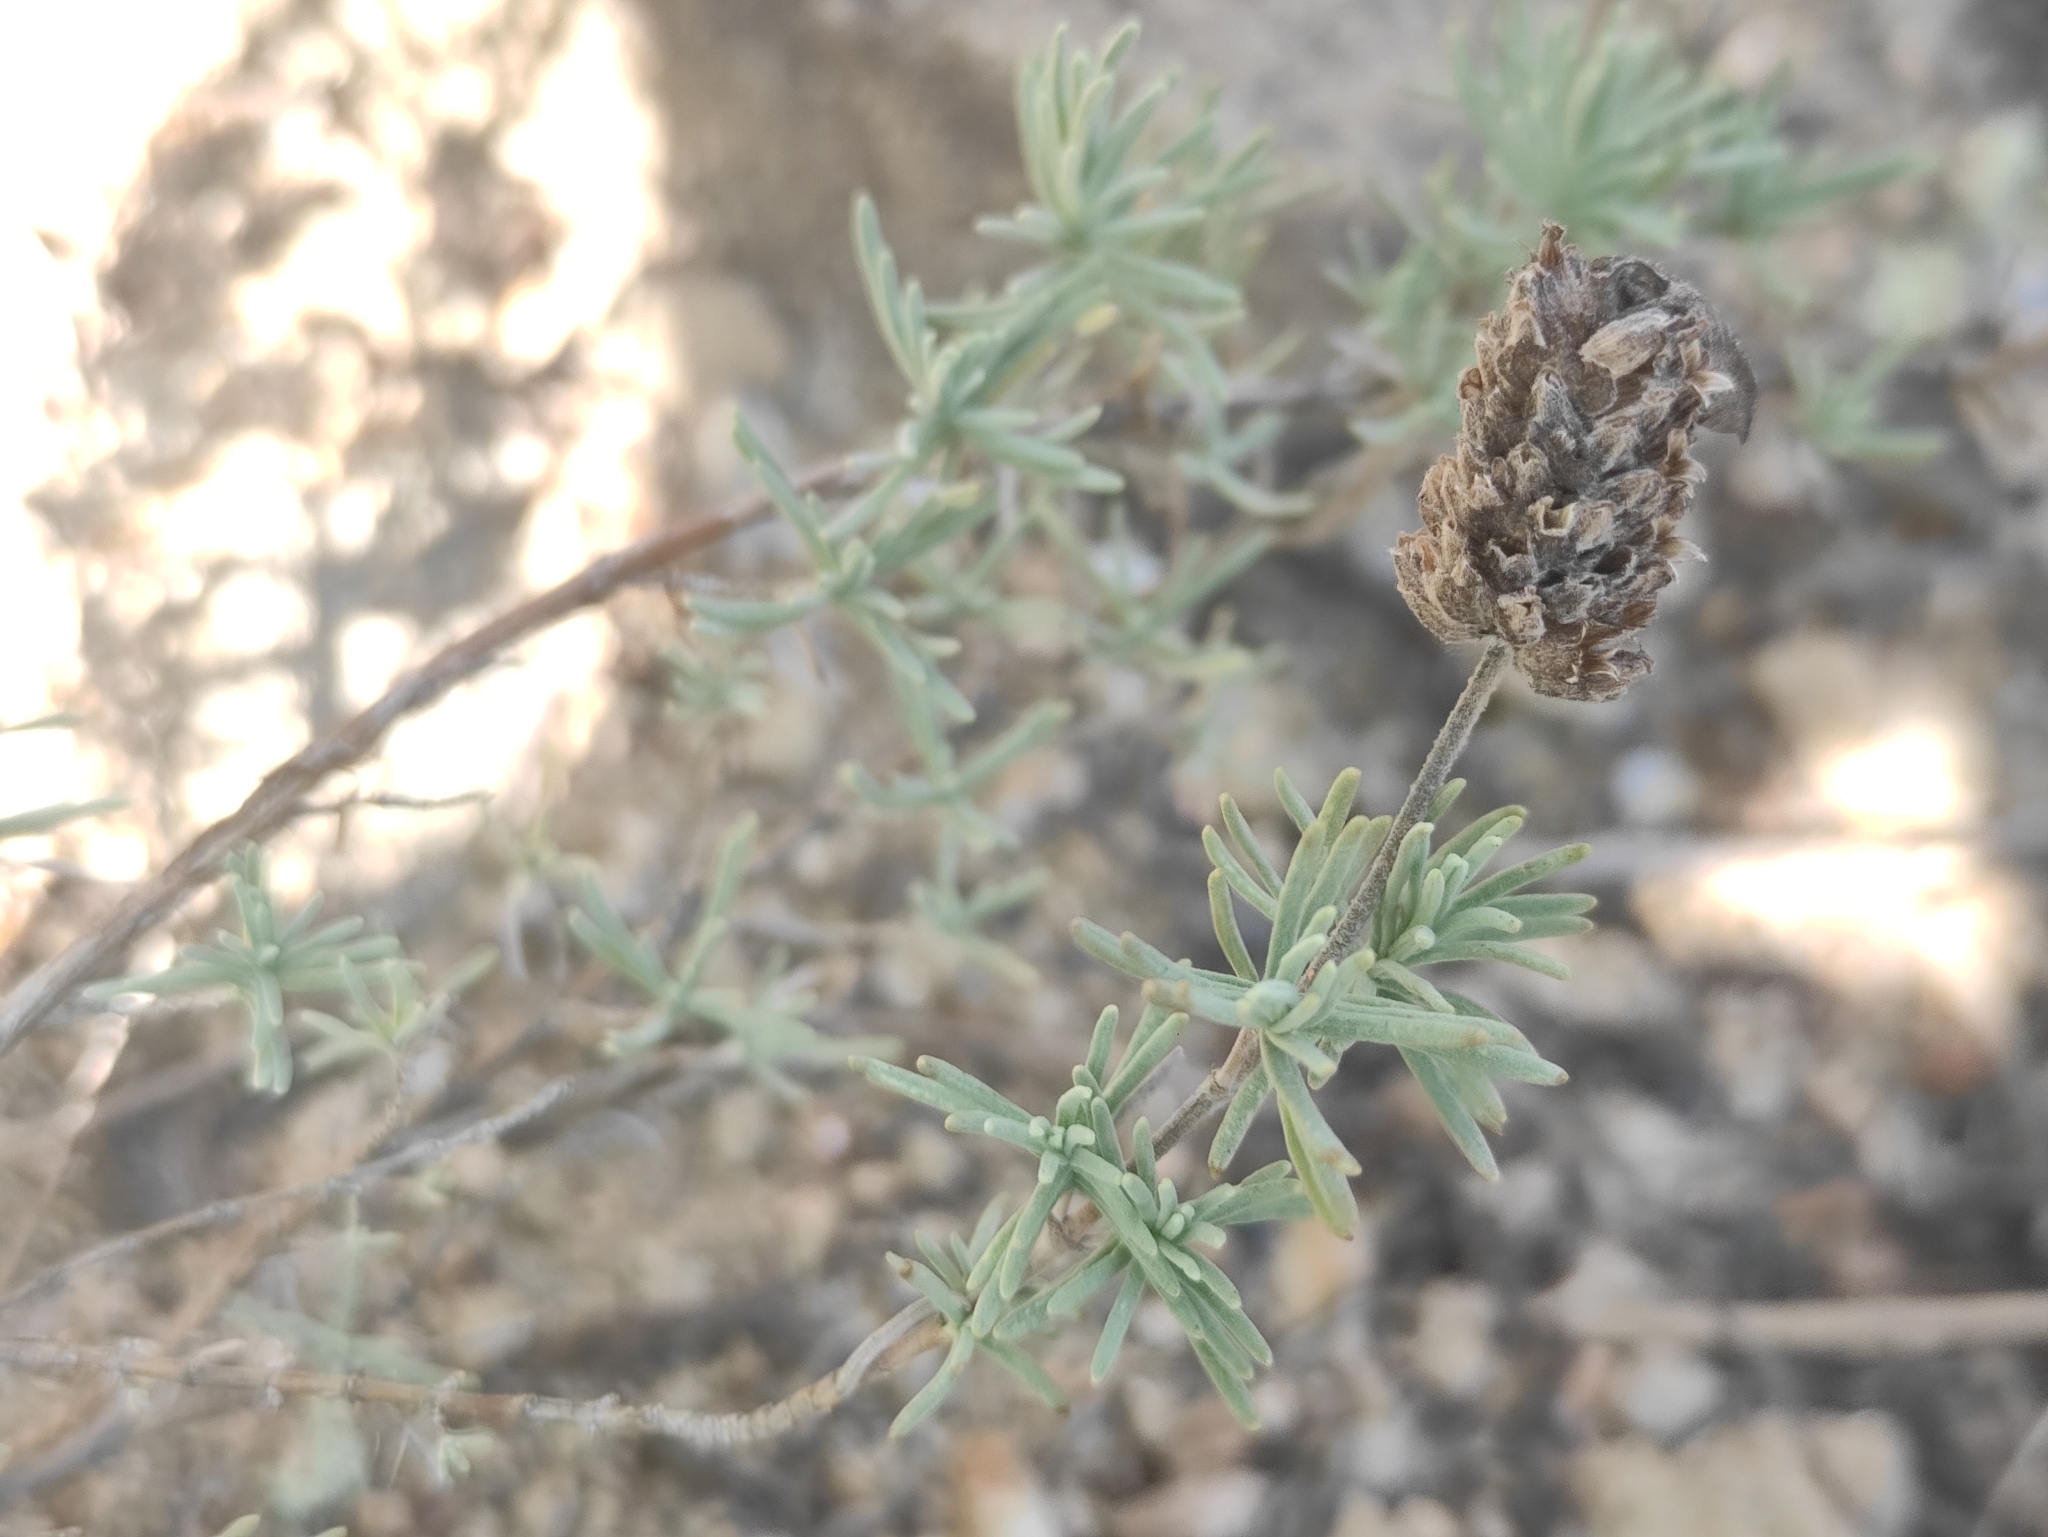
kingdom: Plantae
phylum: Tracheophyta
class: Magnoliopsida
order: Lamiales
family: Lamiaceae
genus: Lavandula
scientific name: Lavandula stoechas
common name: French lavender
